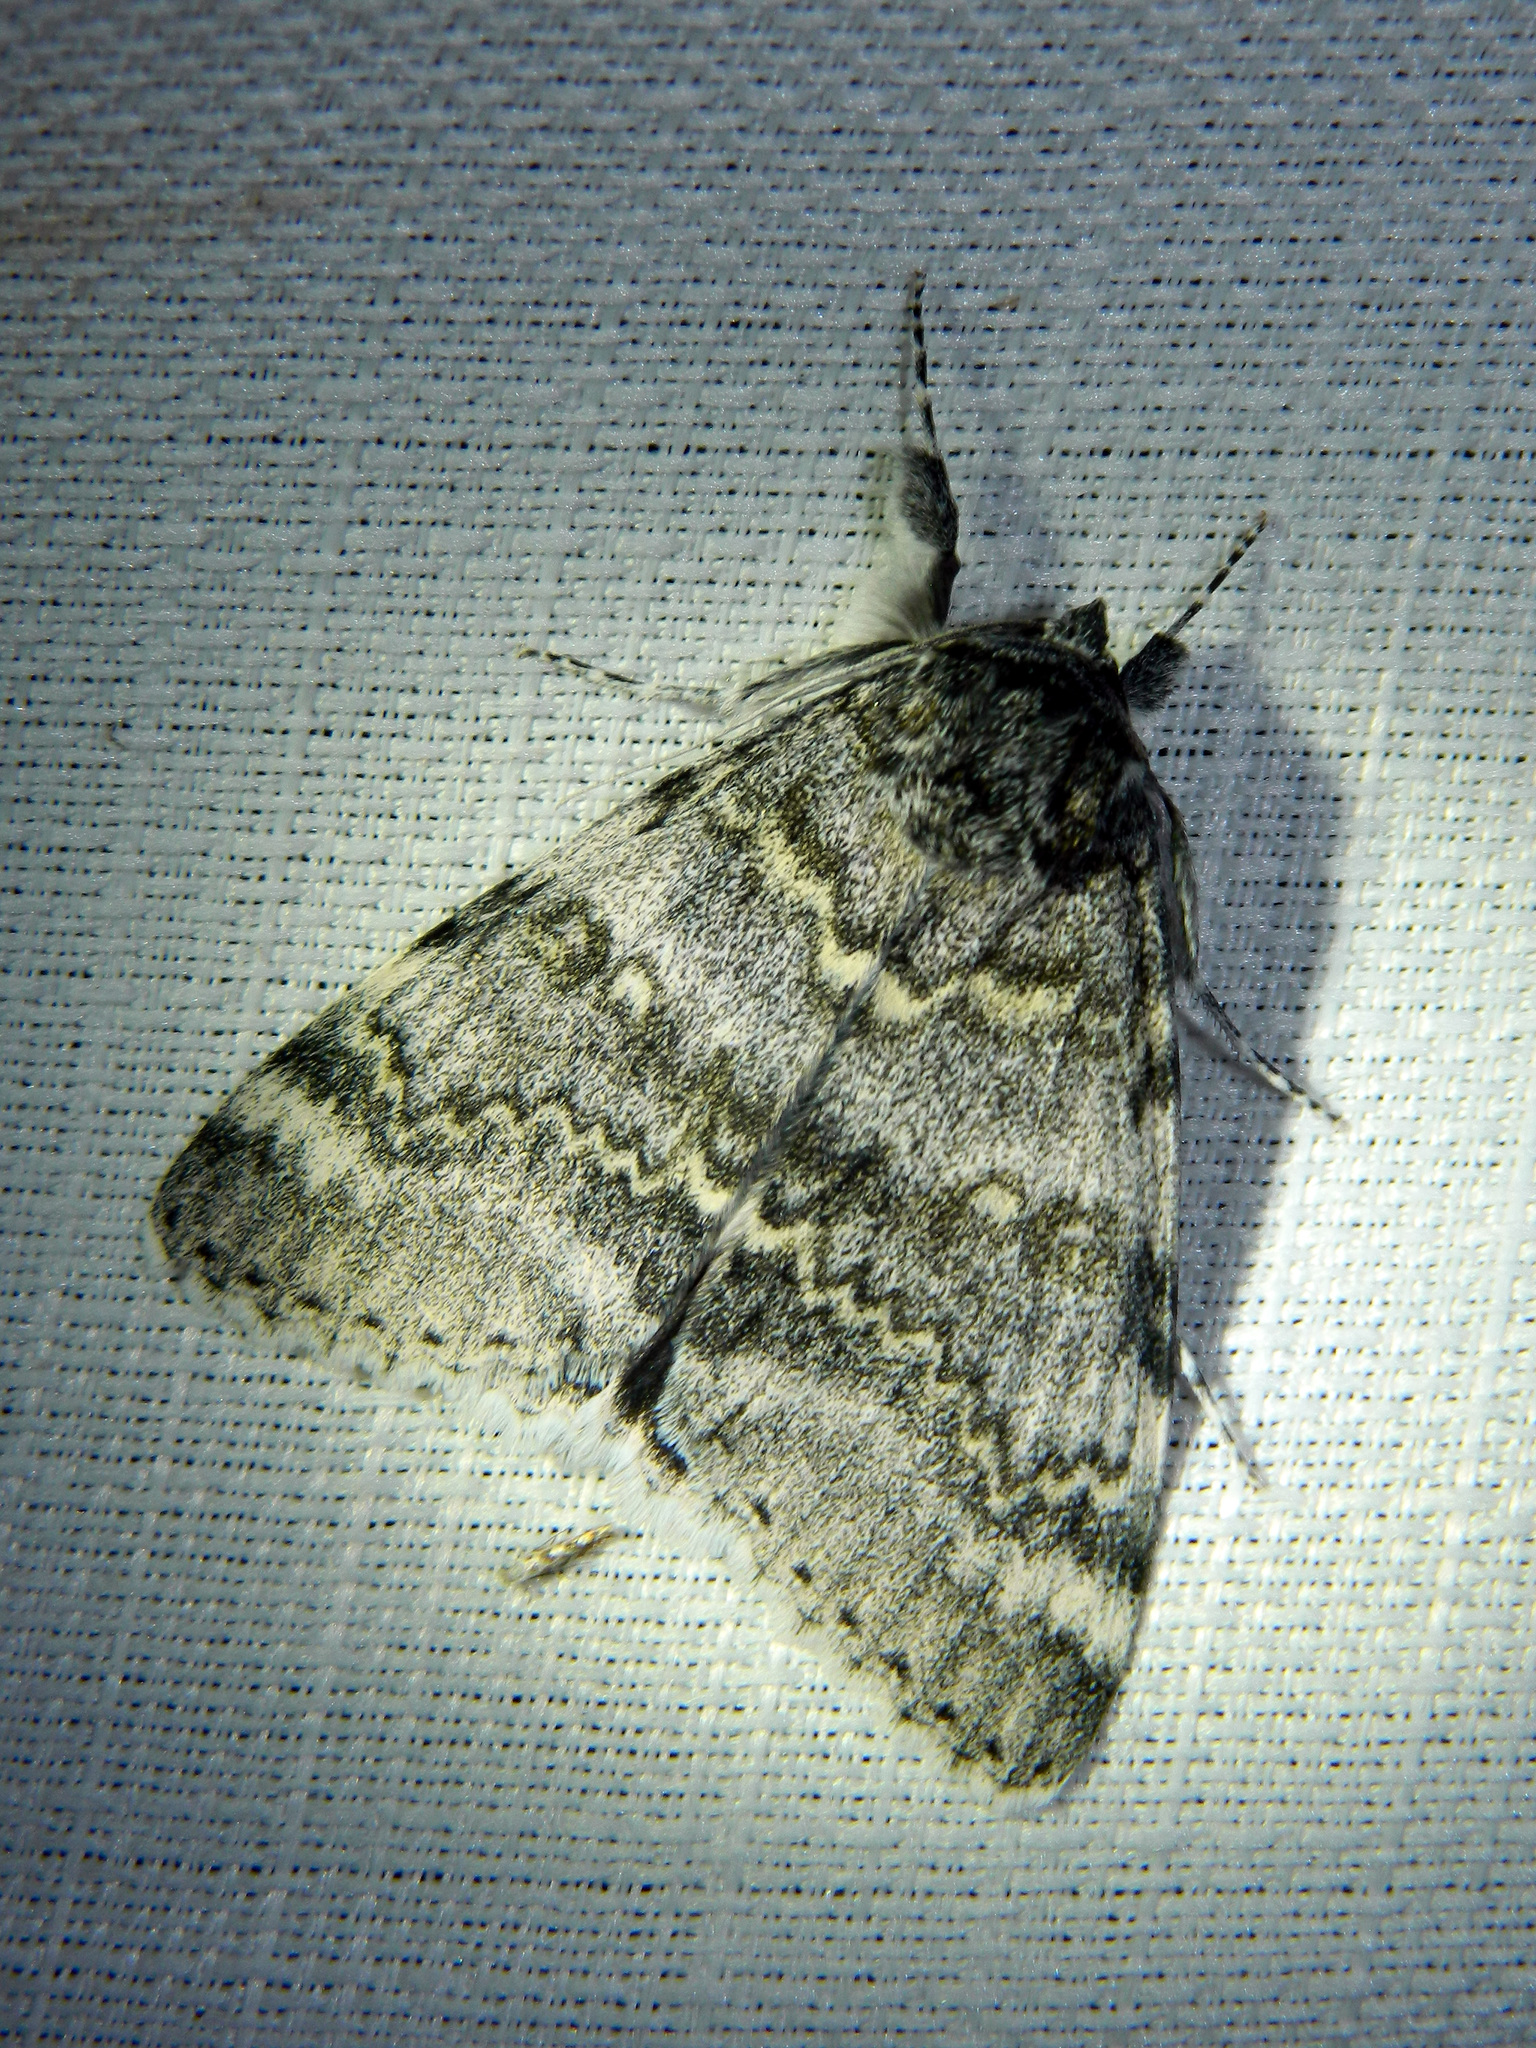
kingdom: Animalia
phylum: Arthropoda
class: Insecta
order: Lepidoptera
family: Erebidae
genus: Catocala
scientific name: Catocala relicta
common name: White underwing
